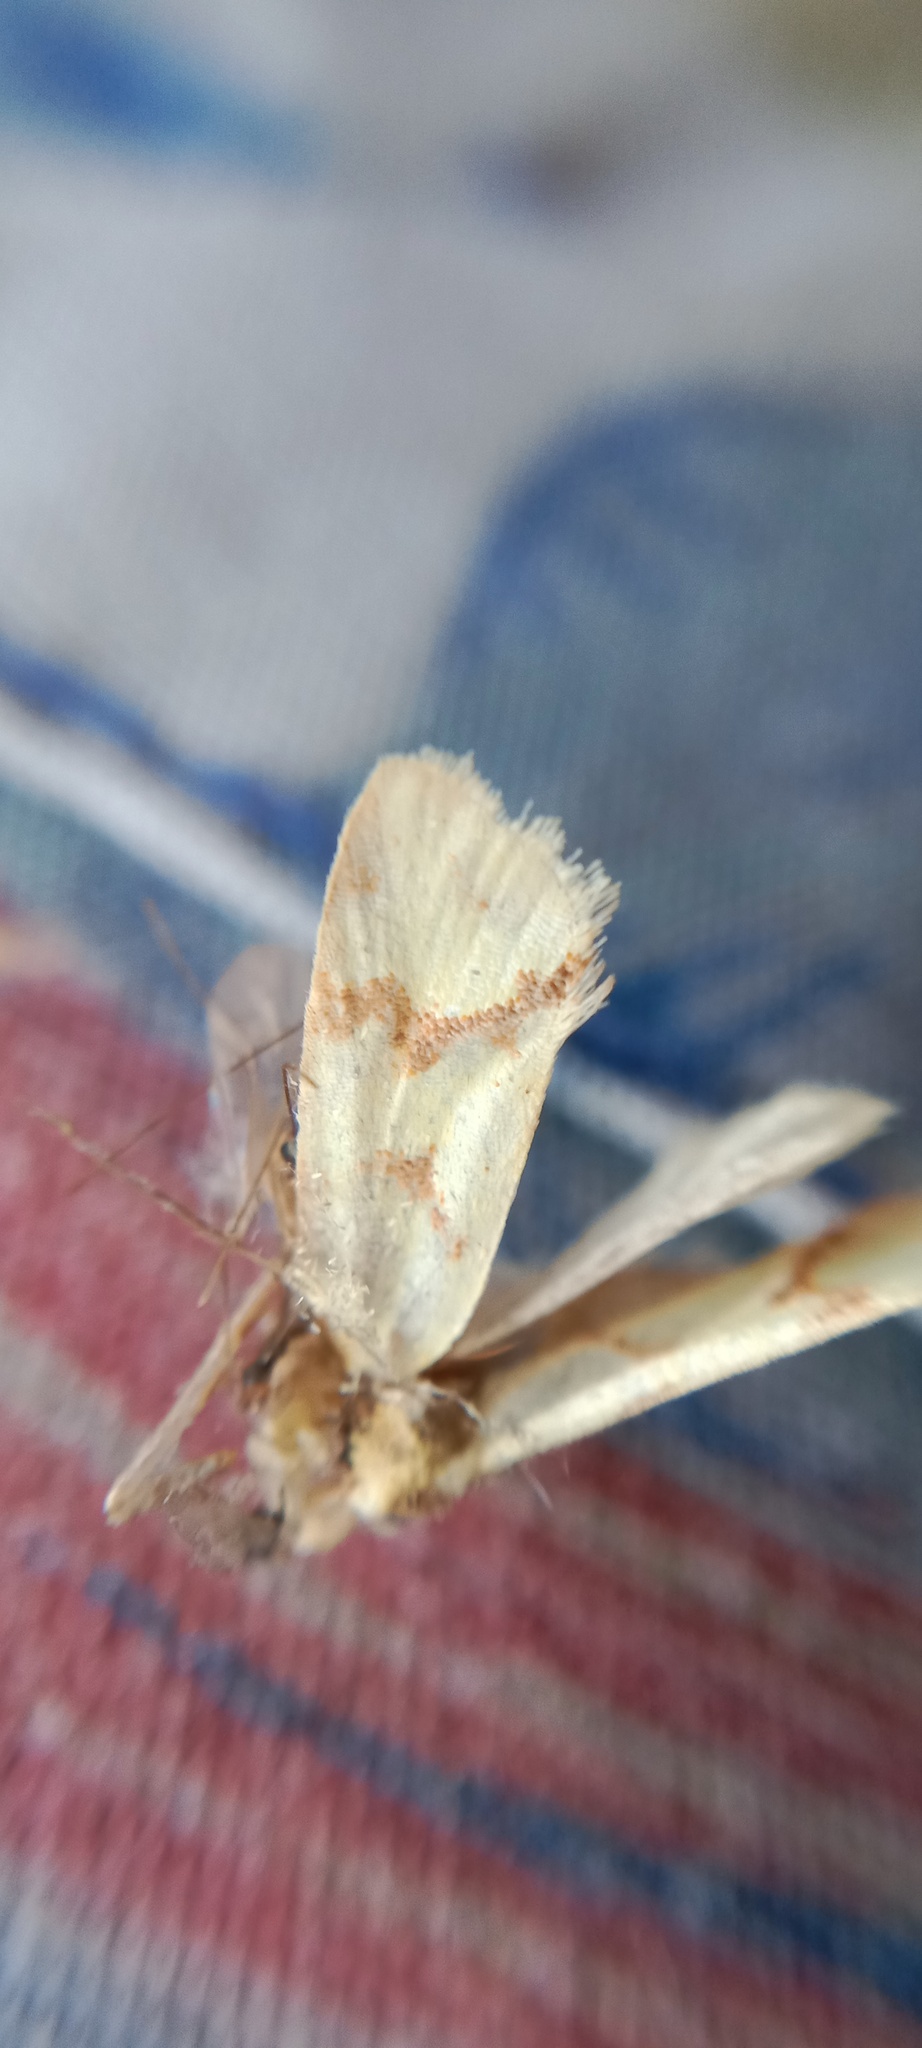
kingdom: Animalia
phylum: Arthropoda
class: Insecta
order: Lepidoptera
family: Tortricidae
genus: Agapeta
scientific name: Agapeta hamana
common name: Common yellow conch
